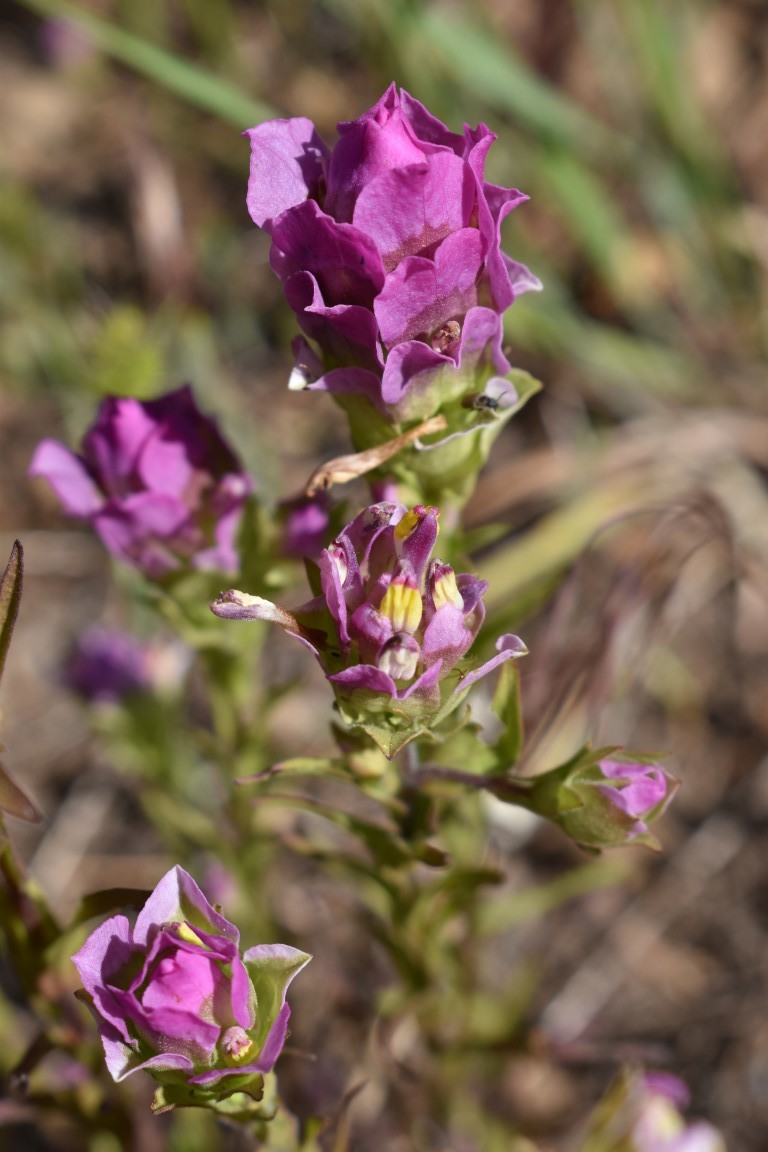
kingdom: Plantae
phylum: Tracheophyta
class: Magnoliopsida
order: Lamiales
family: Orobanchaceae
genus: Orthocarpus
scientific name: Orthocarpus imbricatus
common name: Mountain owl's-clover
